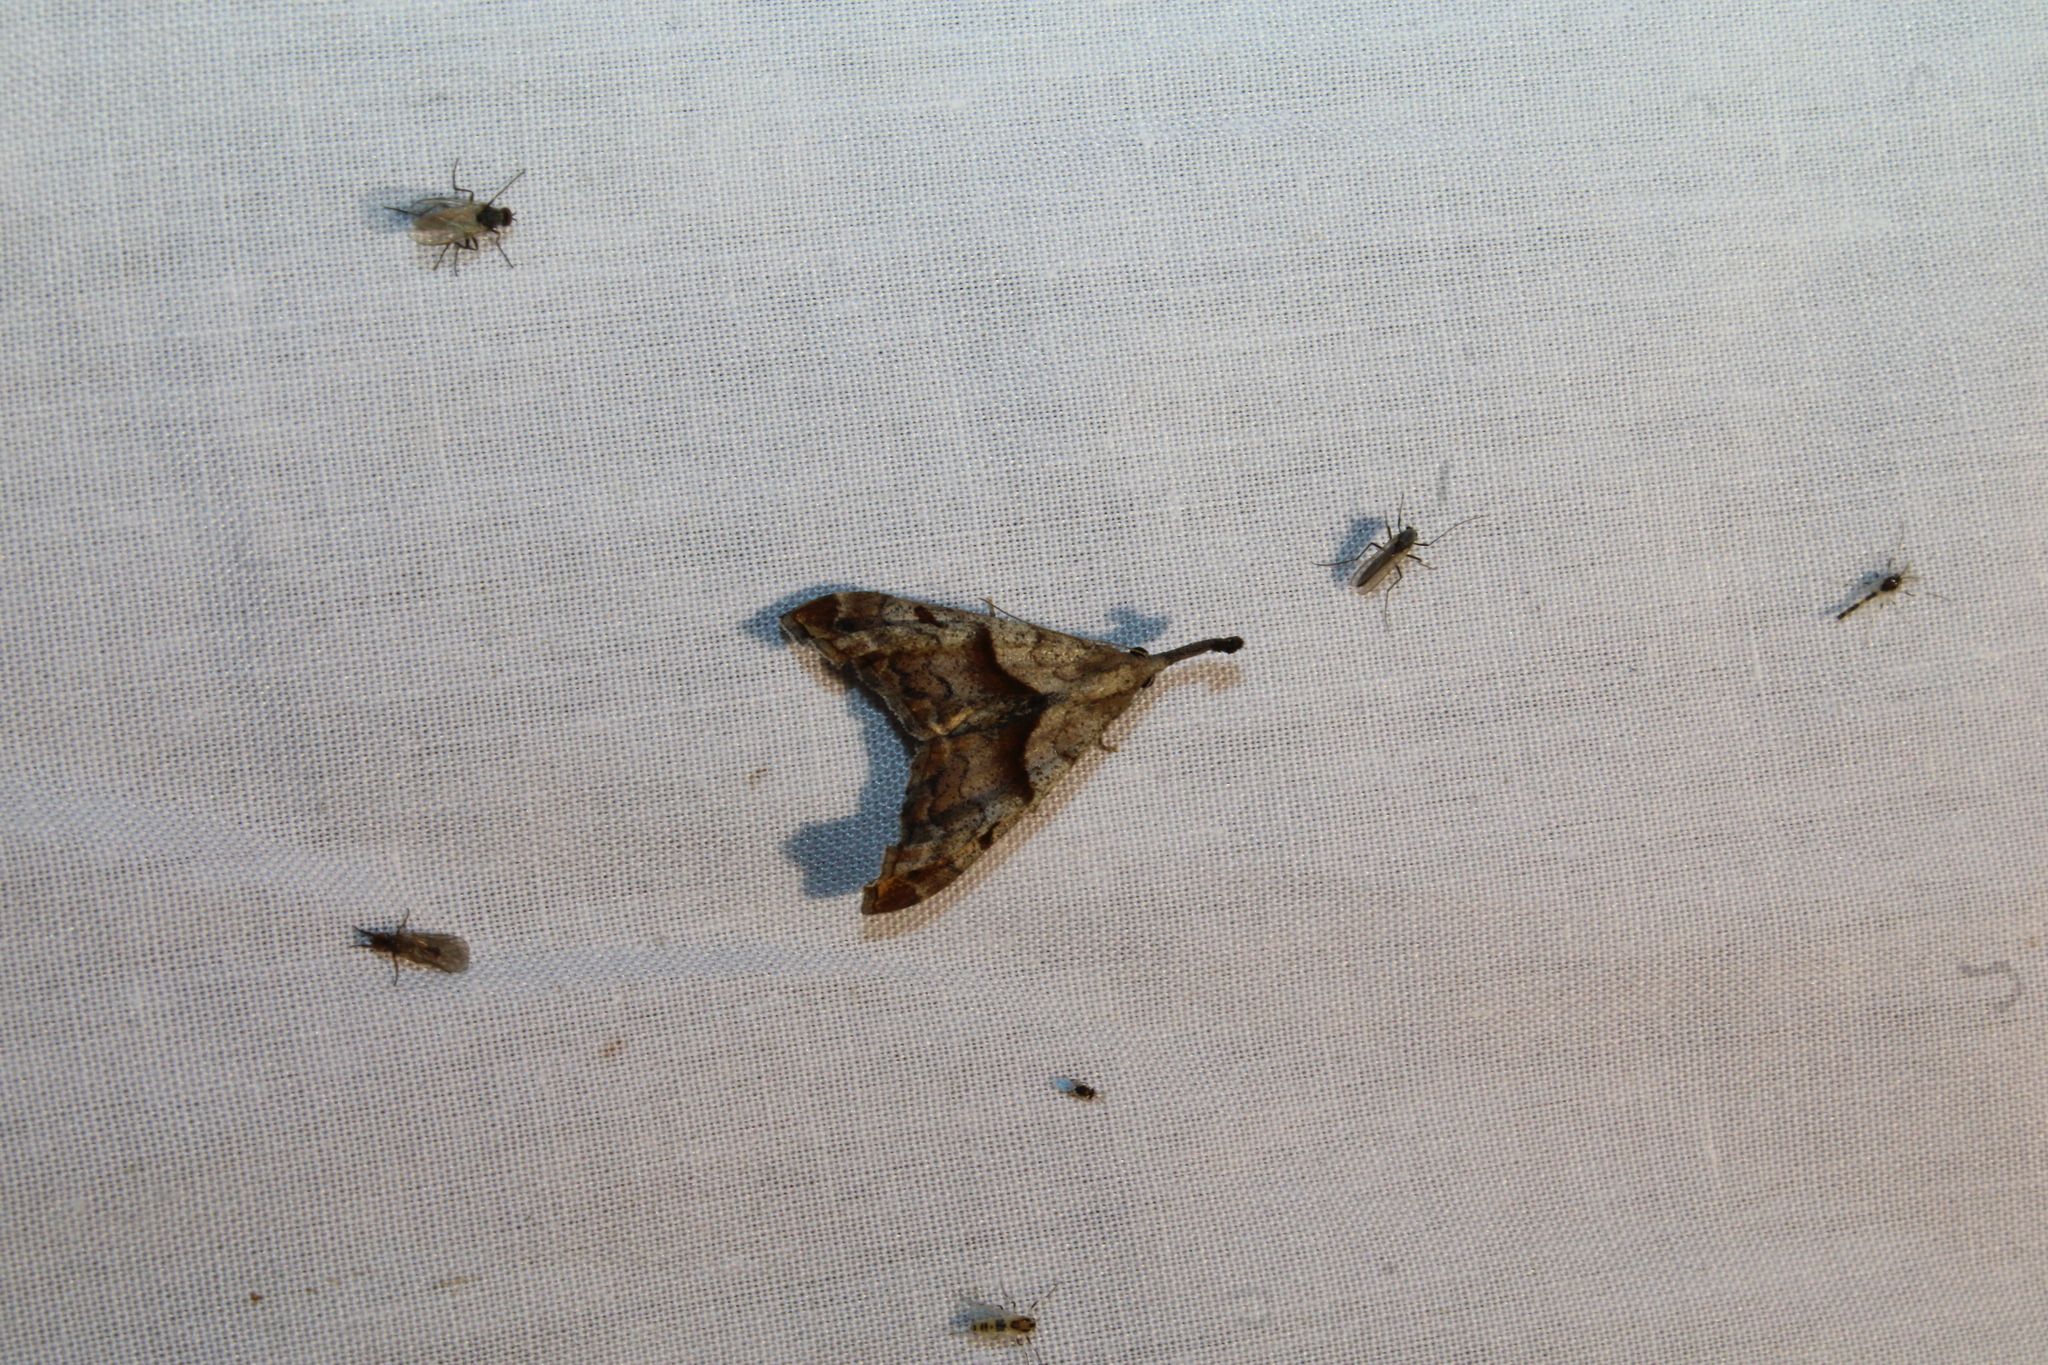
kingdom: Animalia
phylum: Arthropoda
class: Insecta
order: Lepidoptera
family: Erebidae
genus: Palthis
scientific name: Palthis angulalis
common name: Dark-spotted palthis moth
